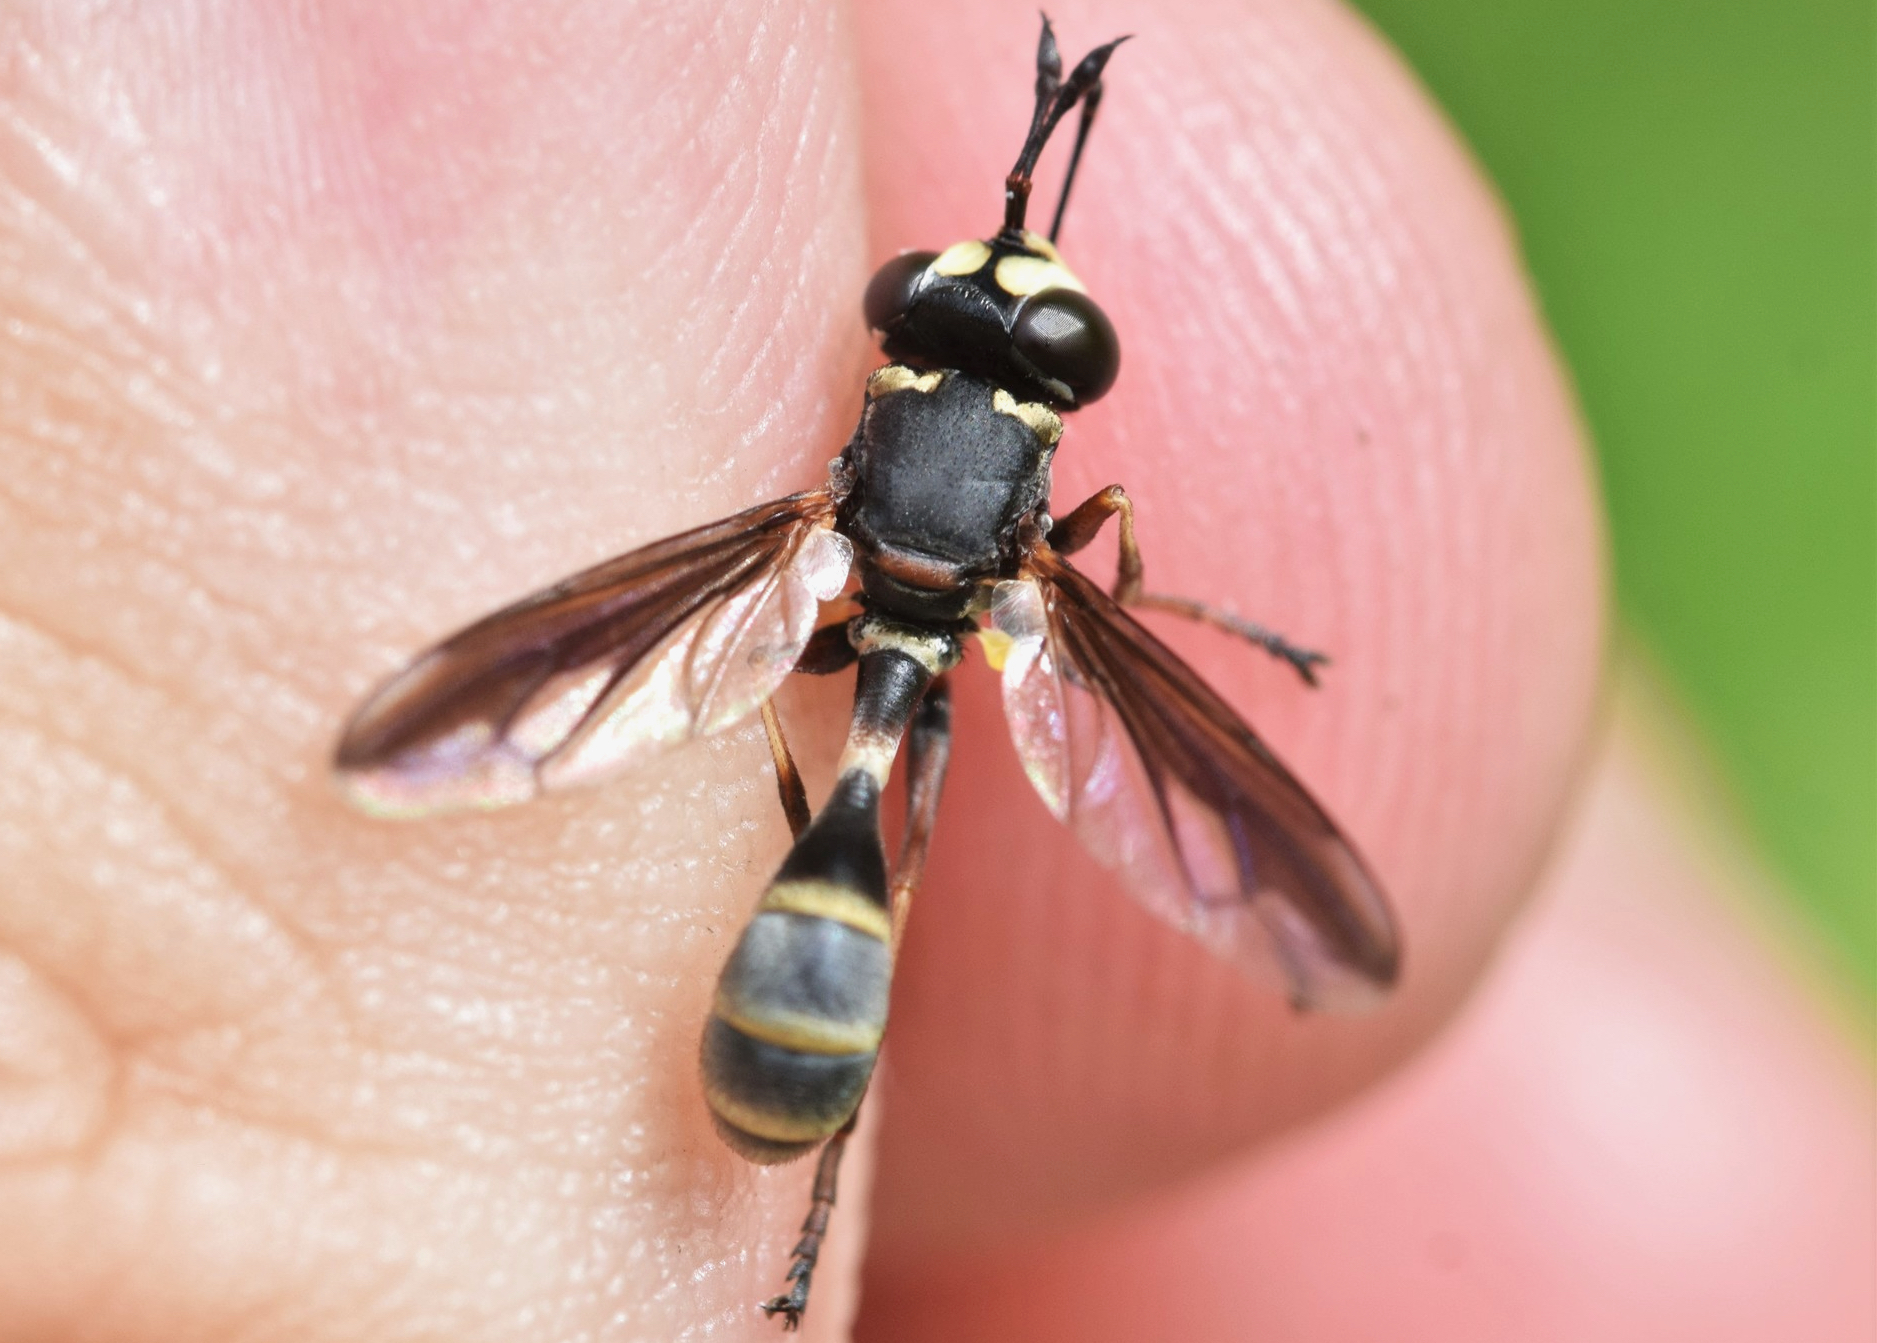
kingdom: Animalia
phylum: Arthropoda
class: Insecta
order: Diptera
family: Conopidae
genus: Physocephala
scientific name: Physocephala marginata
